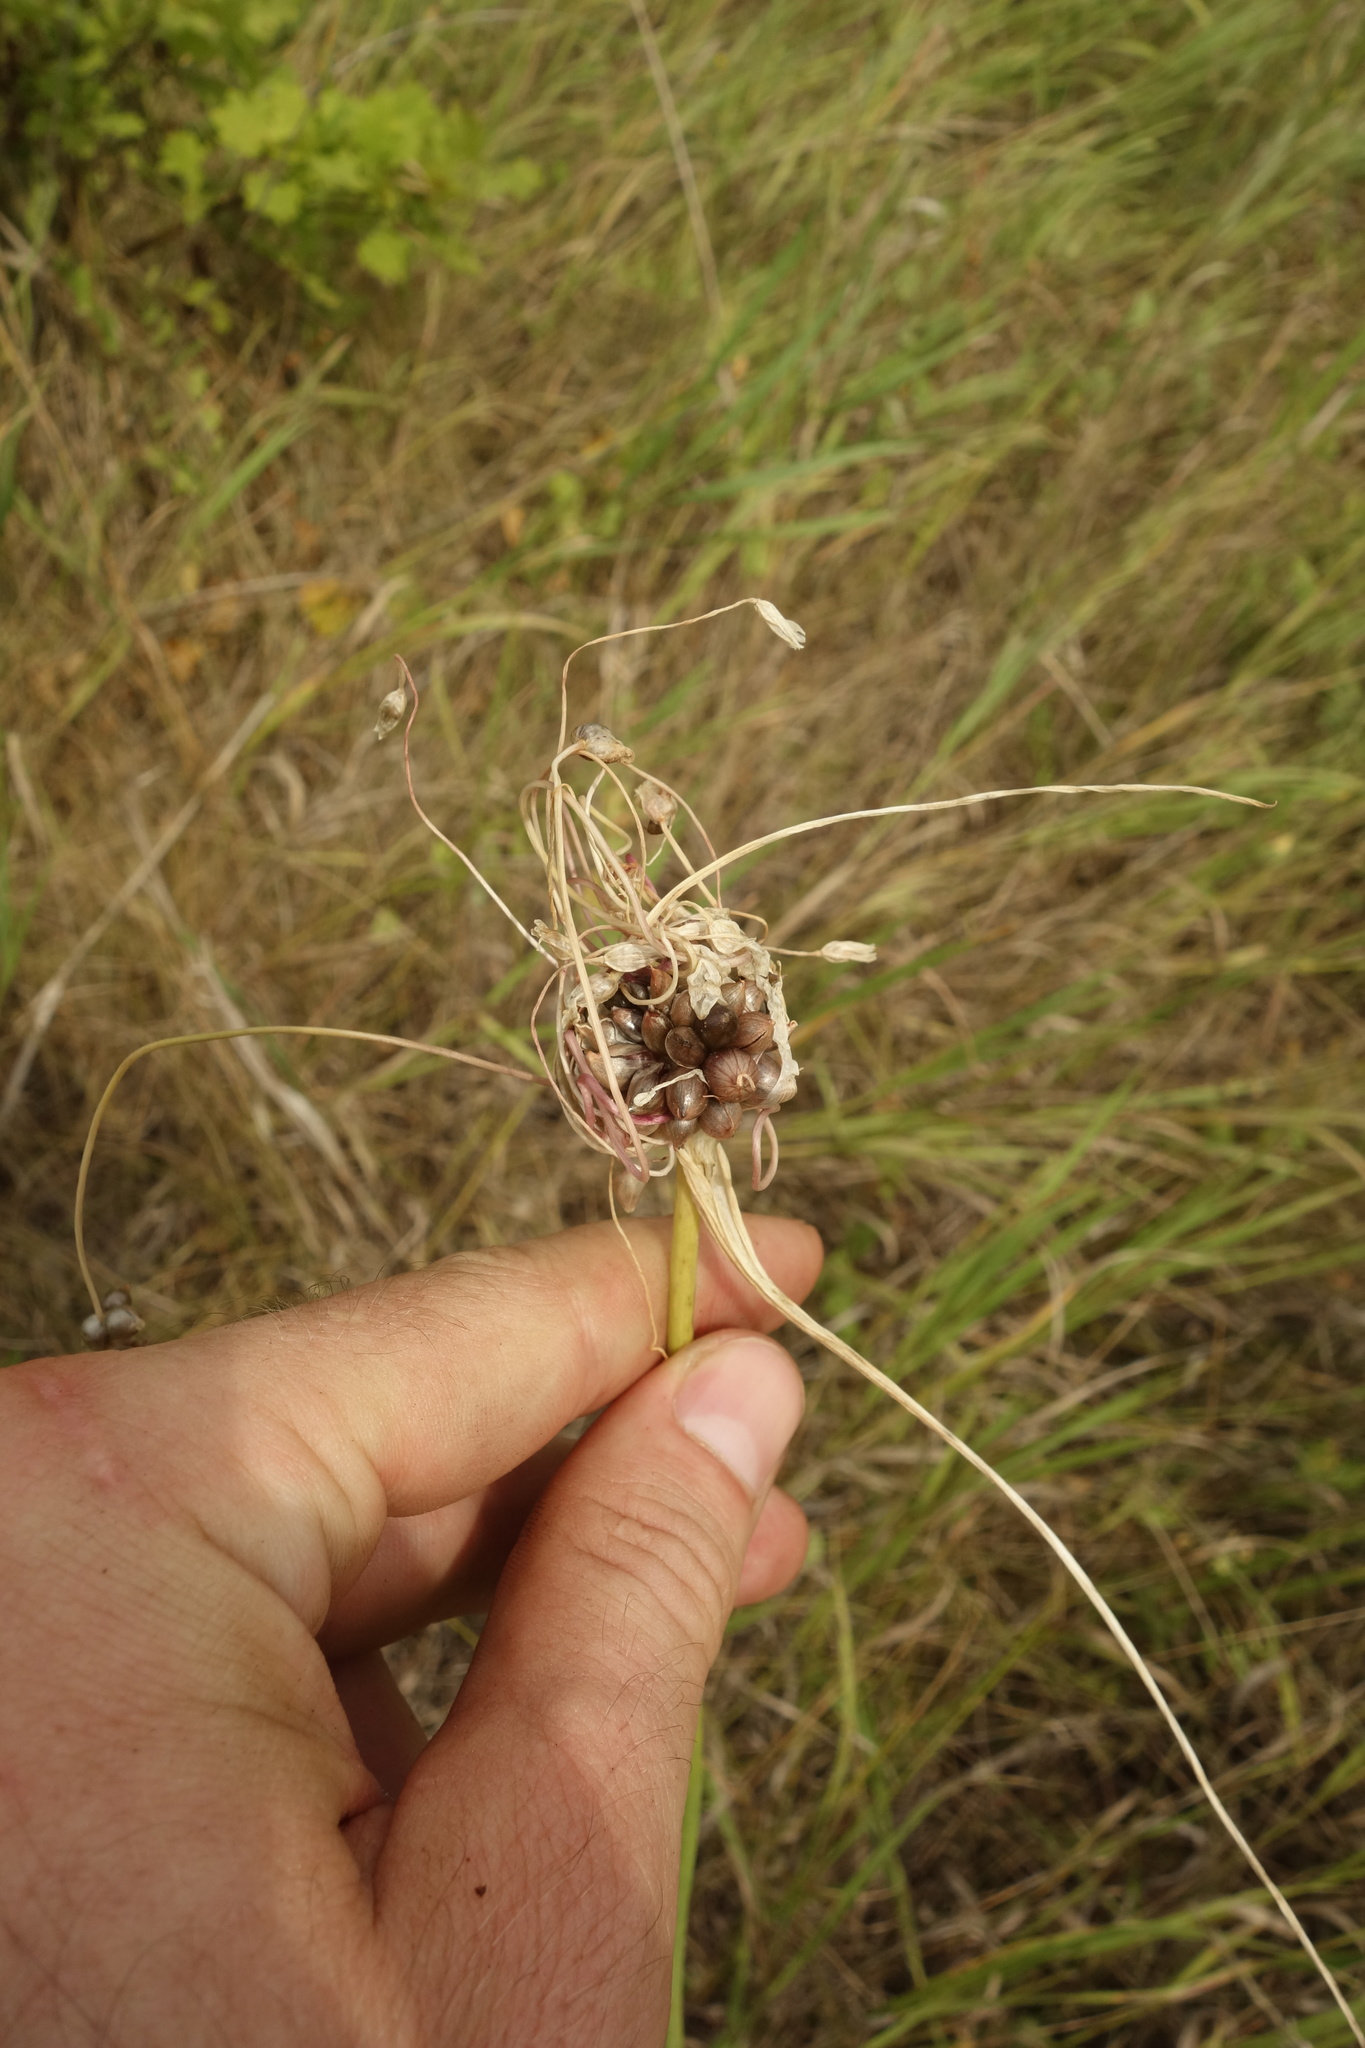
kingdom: Plantae
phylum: Tracheophyta
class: Liliopsida
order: Asparagales
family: Amaryllidaceae
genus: Allium
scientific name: Allium oleraceum
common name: Field garlic
